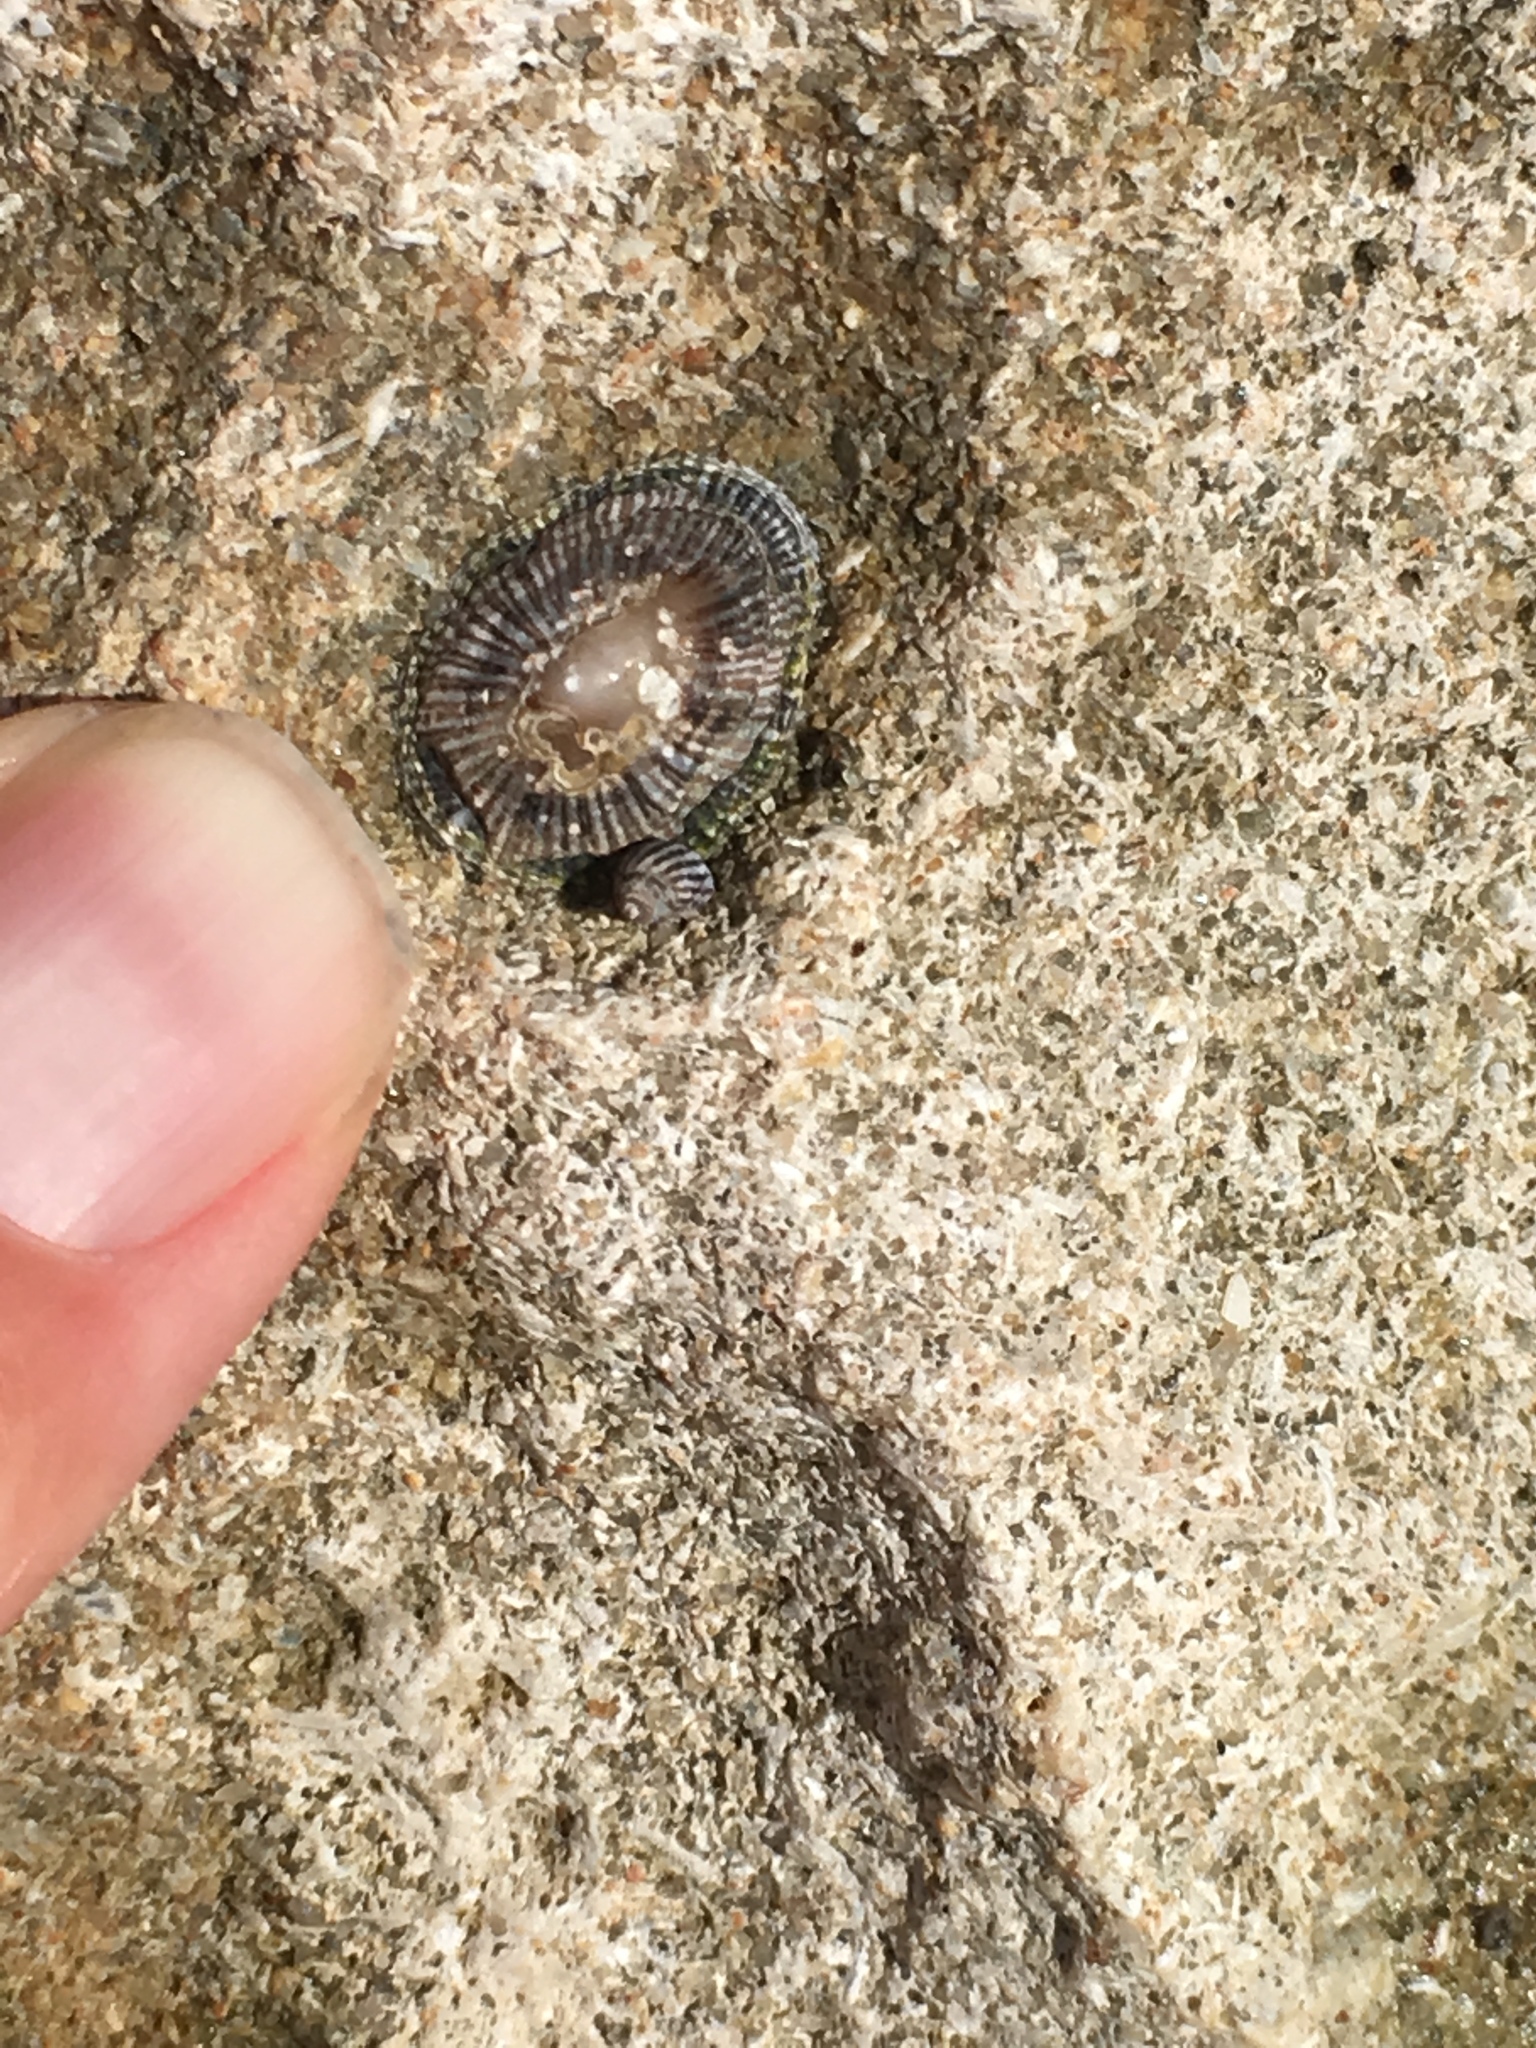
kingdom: Animalia
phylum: Mollusca
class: Gastropoda
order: Siphonariida
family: Siphonariidae
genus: Siphonaria
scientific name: Siphonaria naufragum
